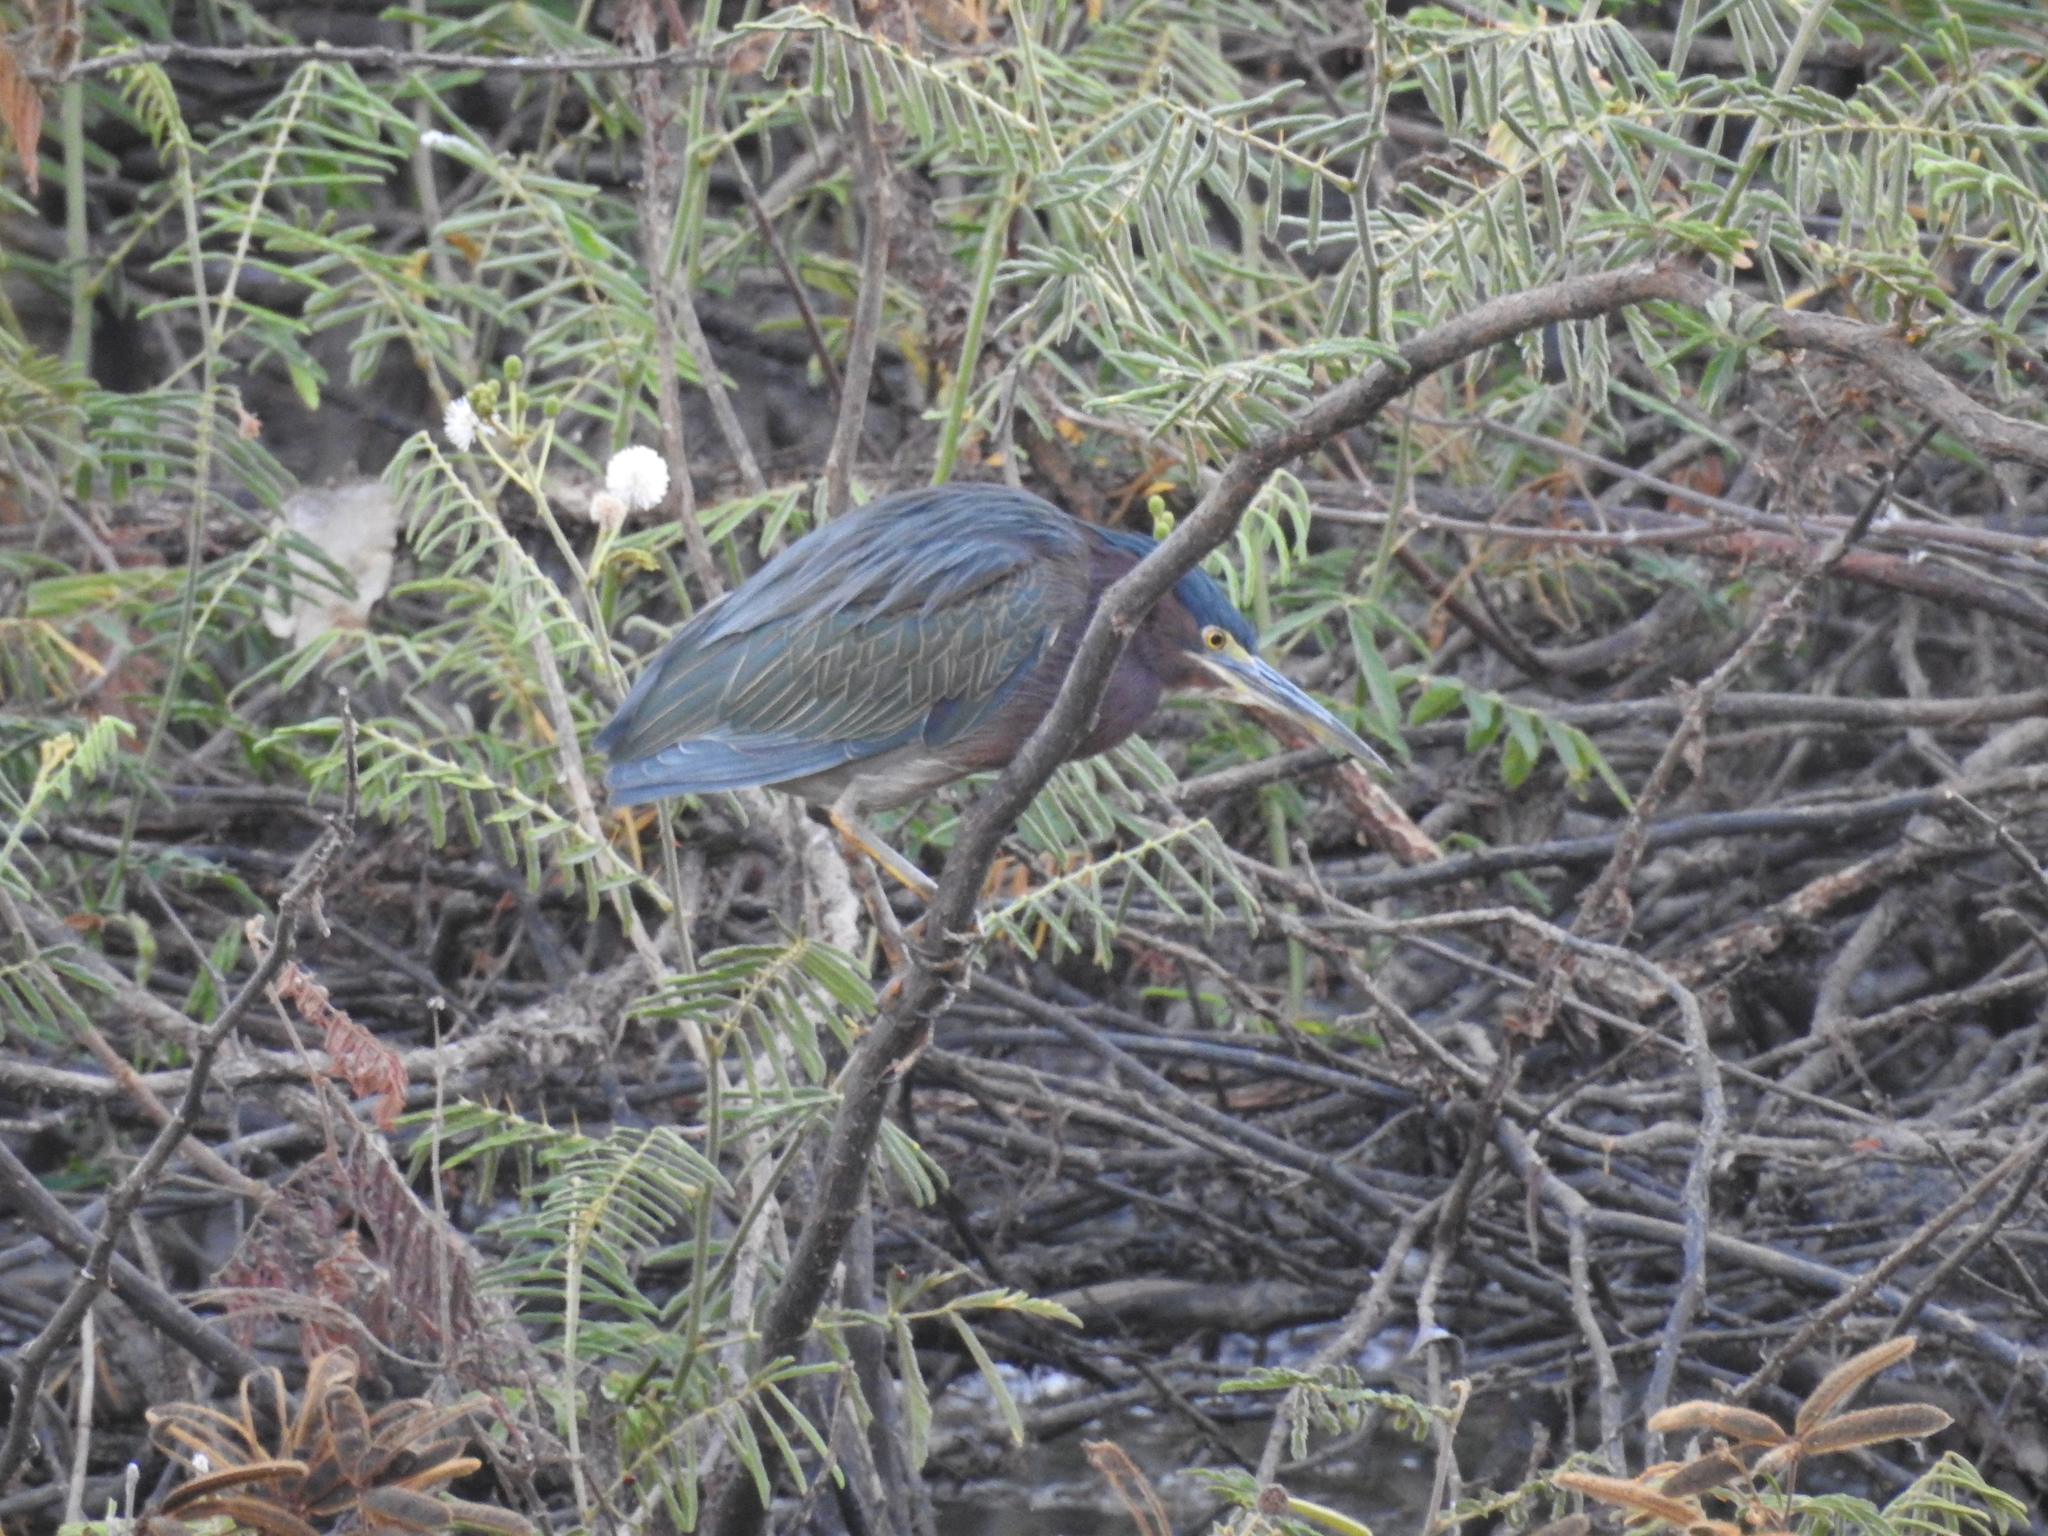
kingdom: Animalia
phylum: Chordata
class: Aves
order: Pelecaniformes
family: Ardeidae
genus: Butorides
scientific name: Butorides virescens
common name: Green heron
